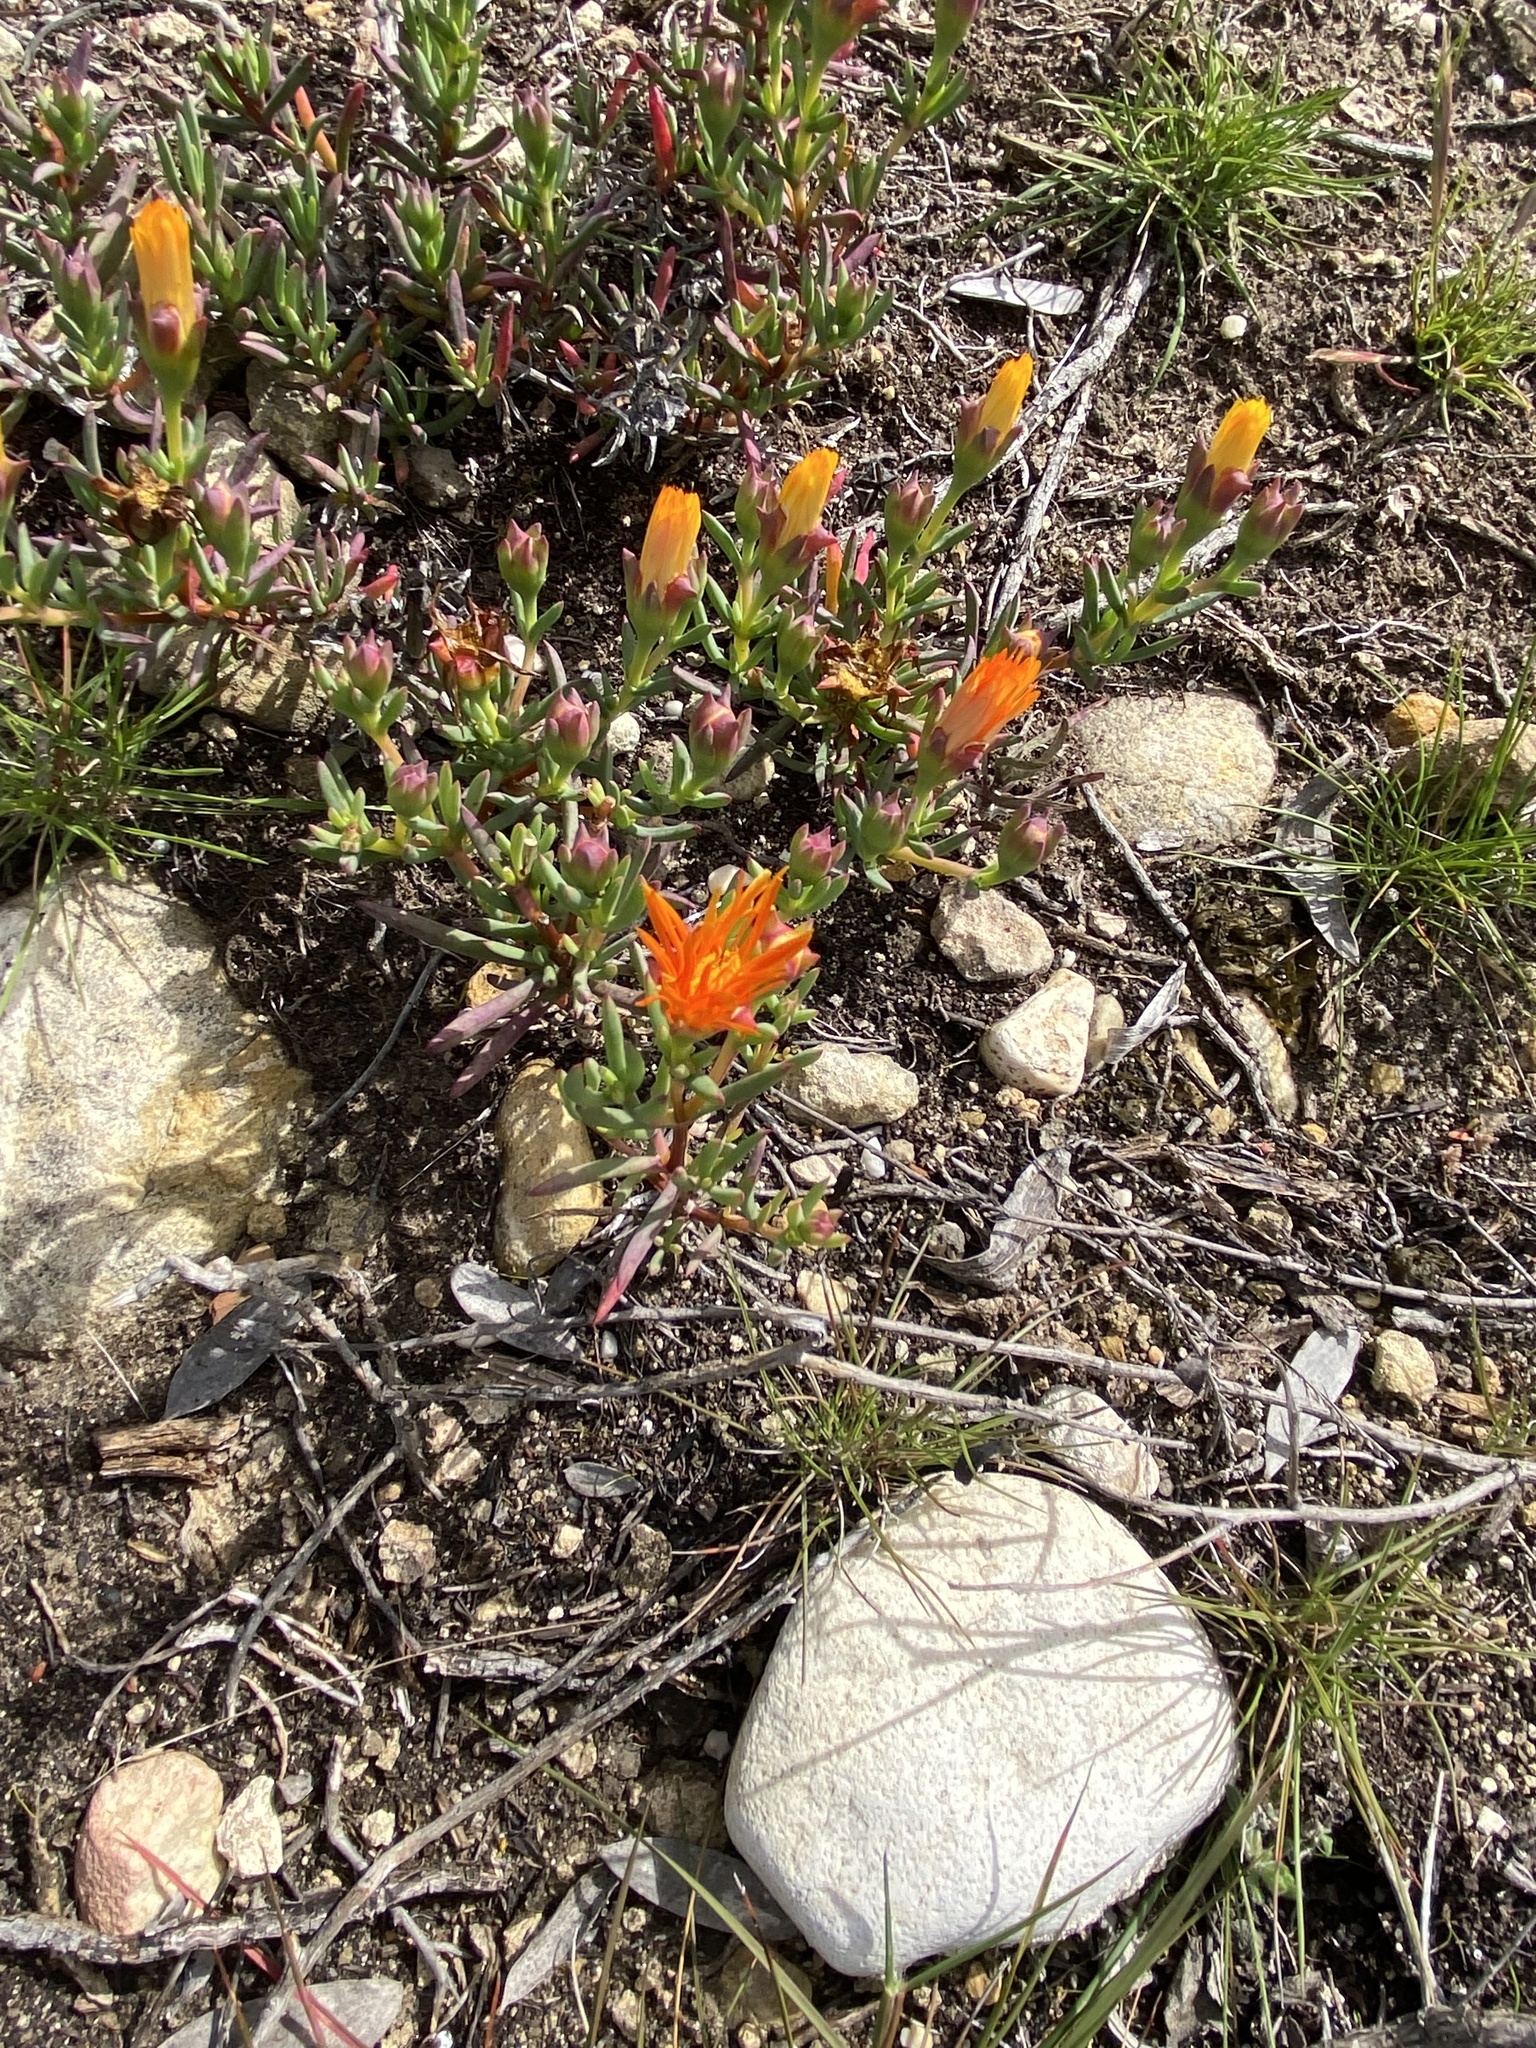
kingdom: Plantae
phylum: Tracheophyta
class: Magnoliopsida
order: Caryophyllales
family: Aizoaceae
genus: Lampranthus
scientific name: Lampranthus bicolor
